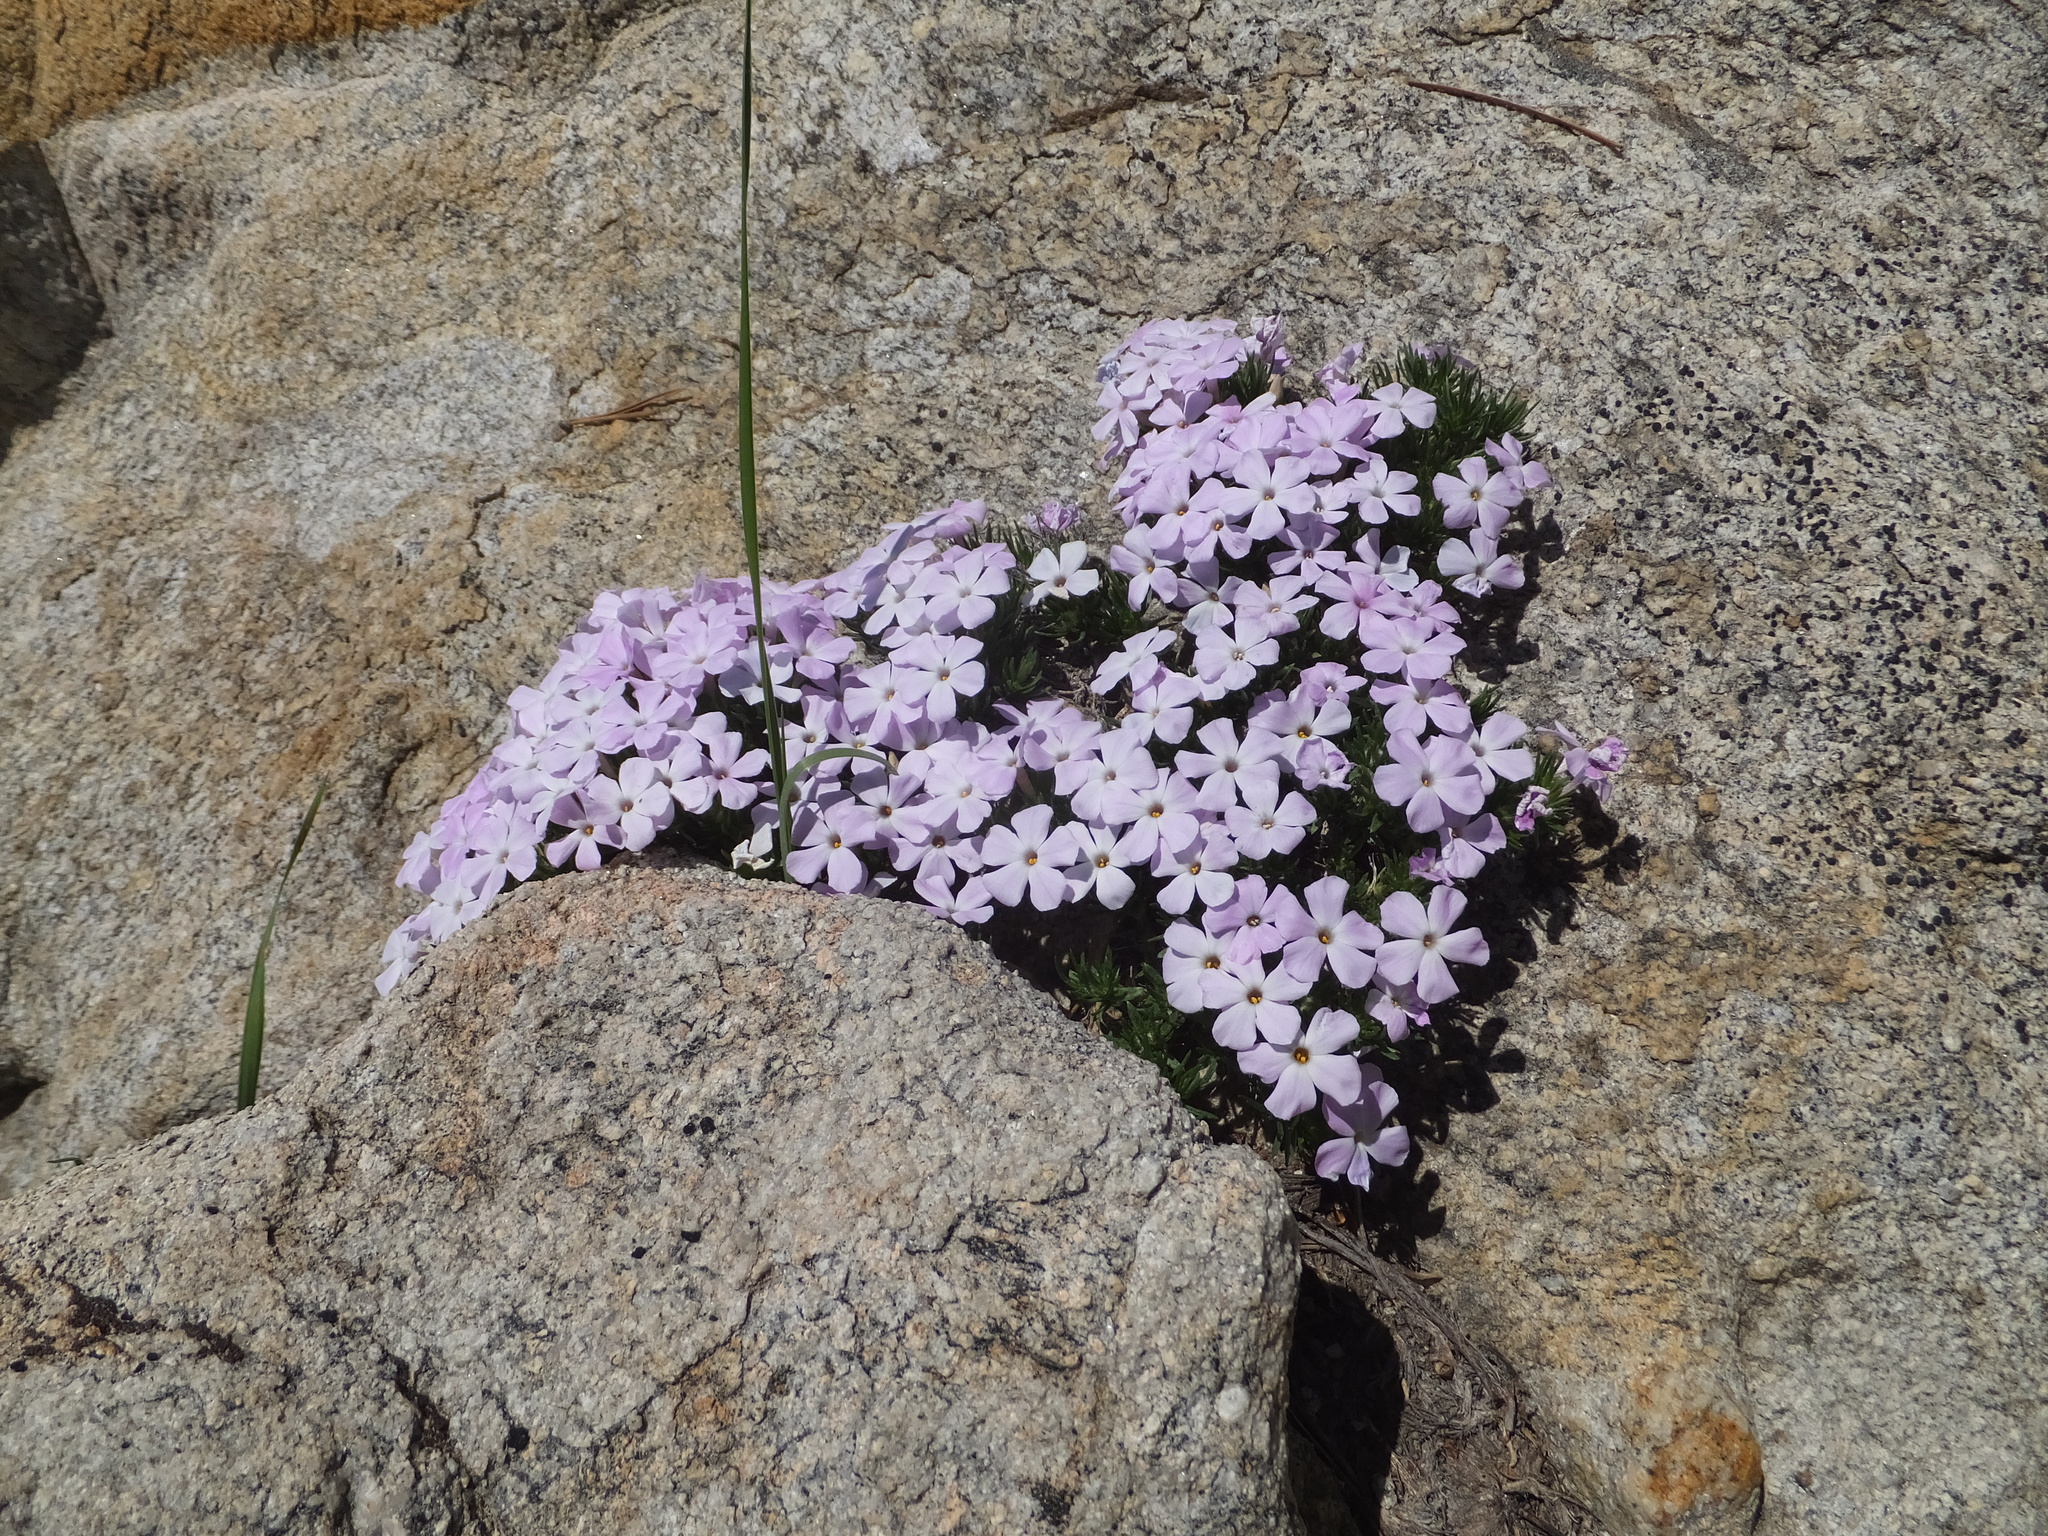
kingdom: Plantae
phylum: Tracheophyta
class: Magnoliopsida
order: Ericales
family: Polemoniaceae
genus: Phlox
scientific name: Phlox diffusa
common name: Mat phlox
